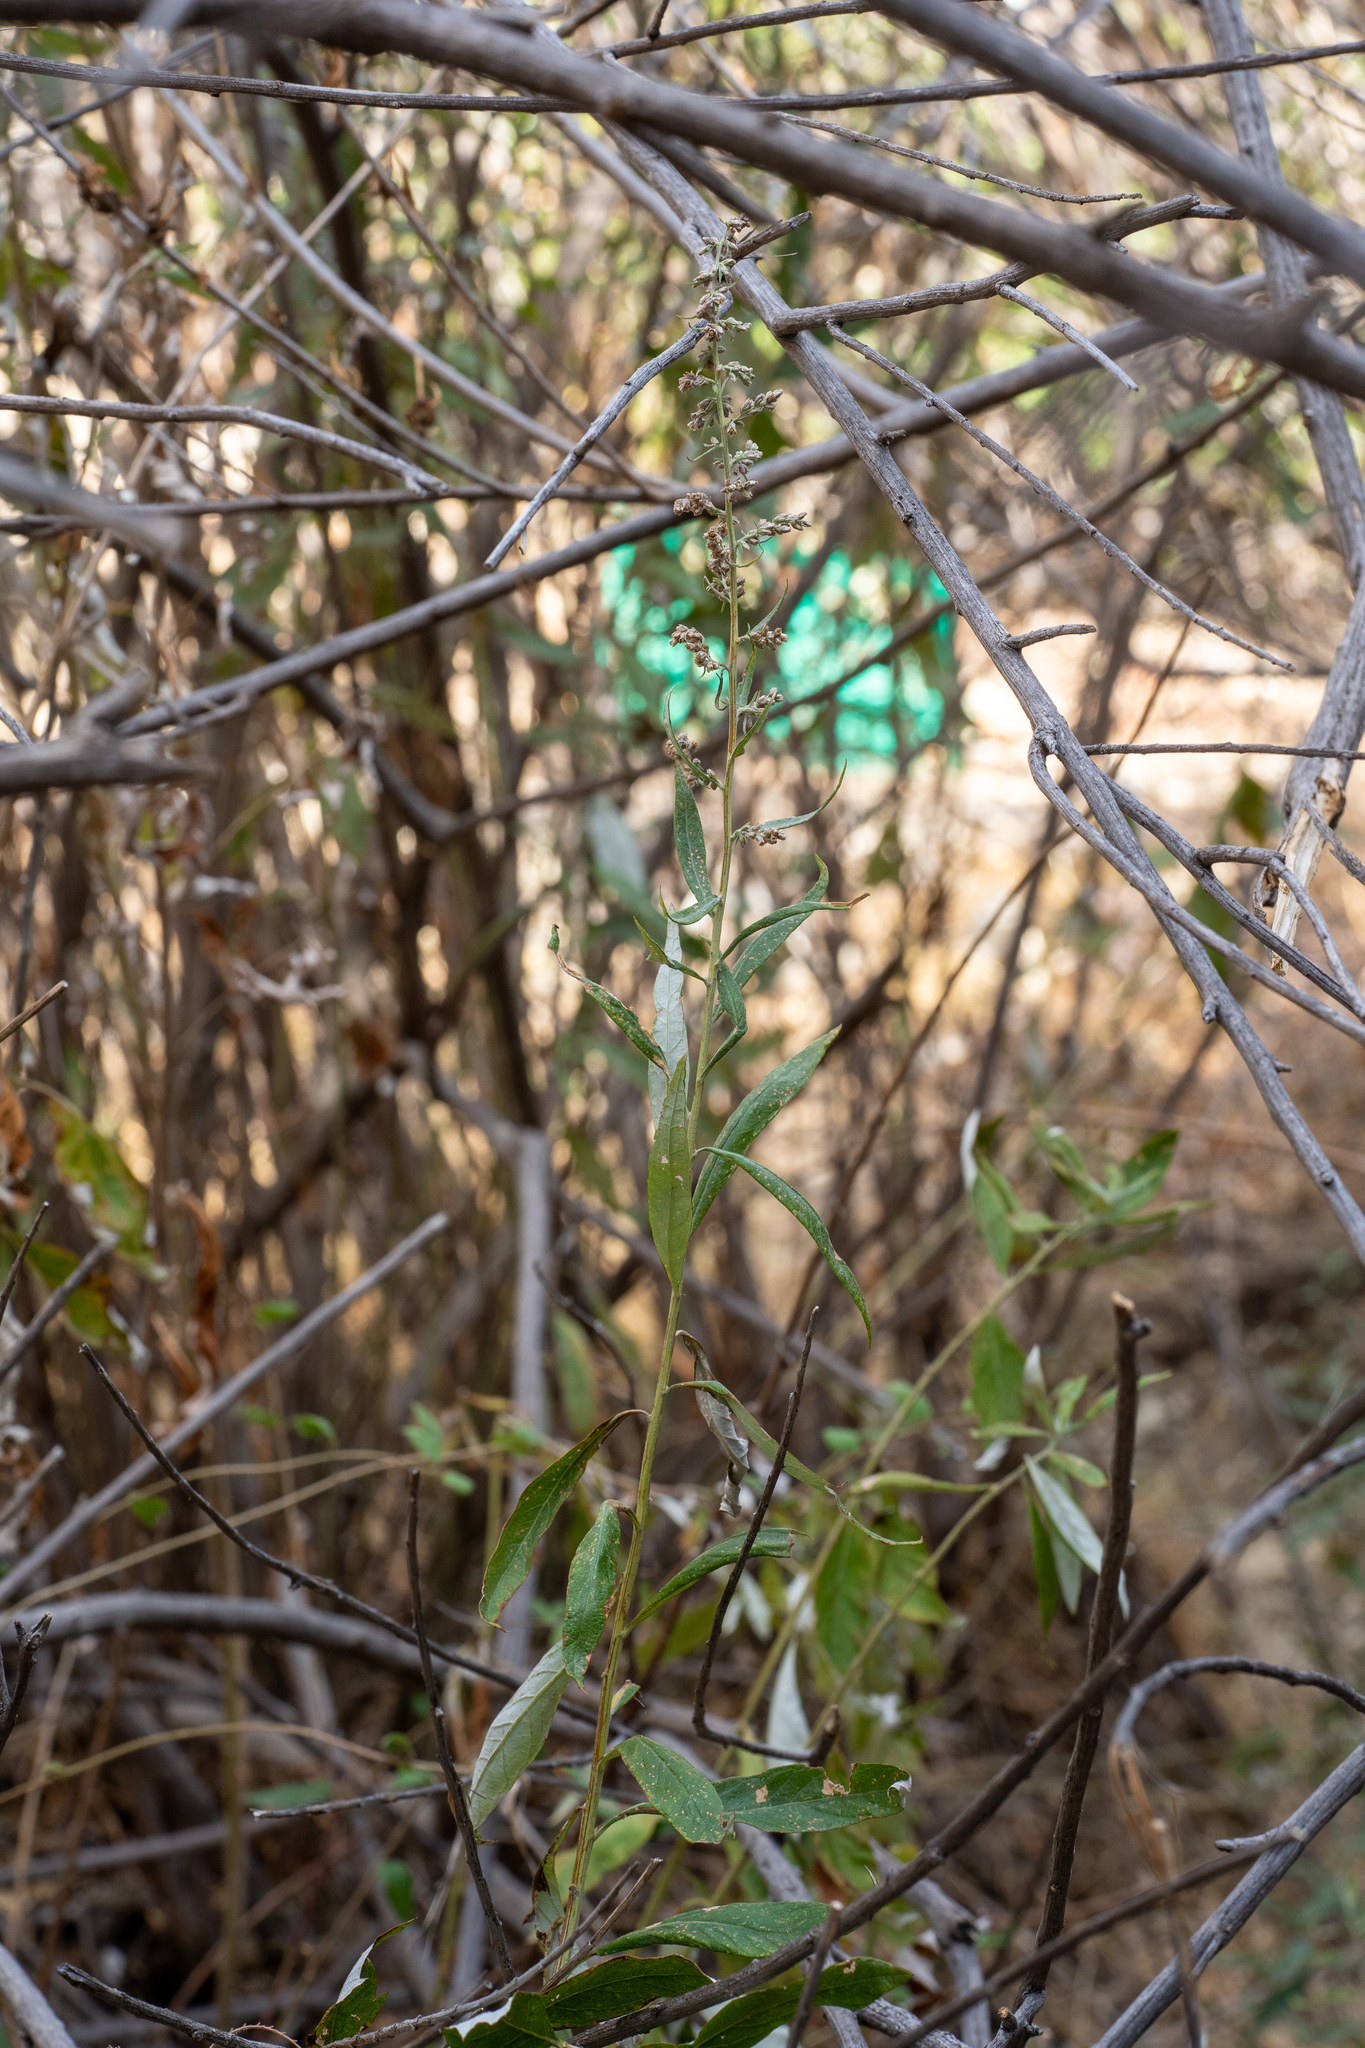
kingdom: Plantae
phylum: Tracheophyta
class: Magnoliopsida
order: Asterales
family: Asteraceae
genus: Artemisia
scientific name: Artemisia douglasiana
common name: Northwest mugwort
